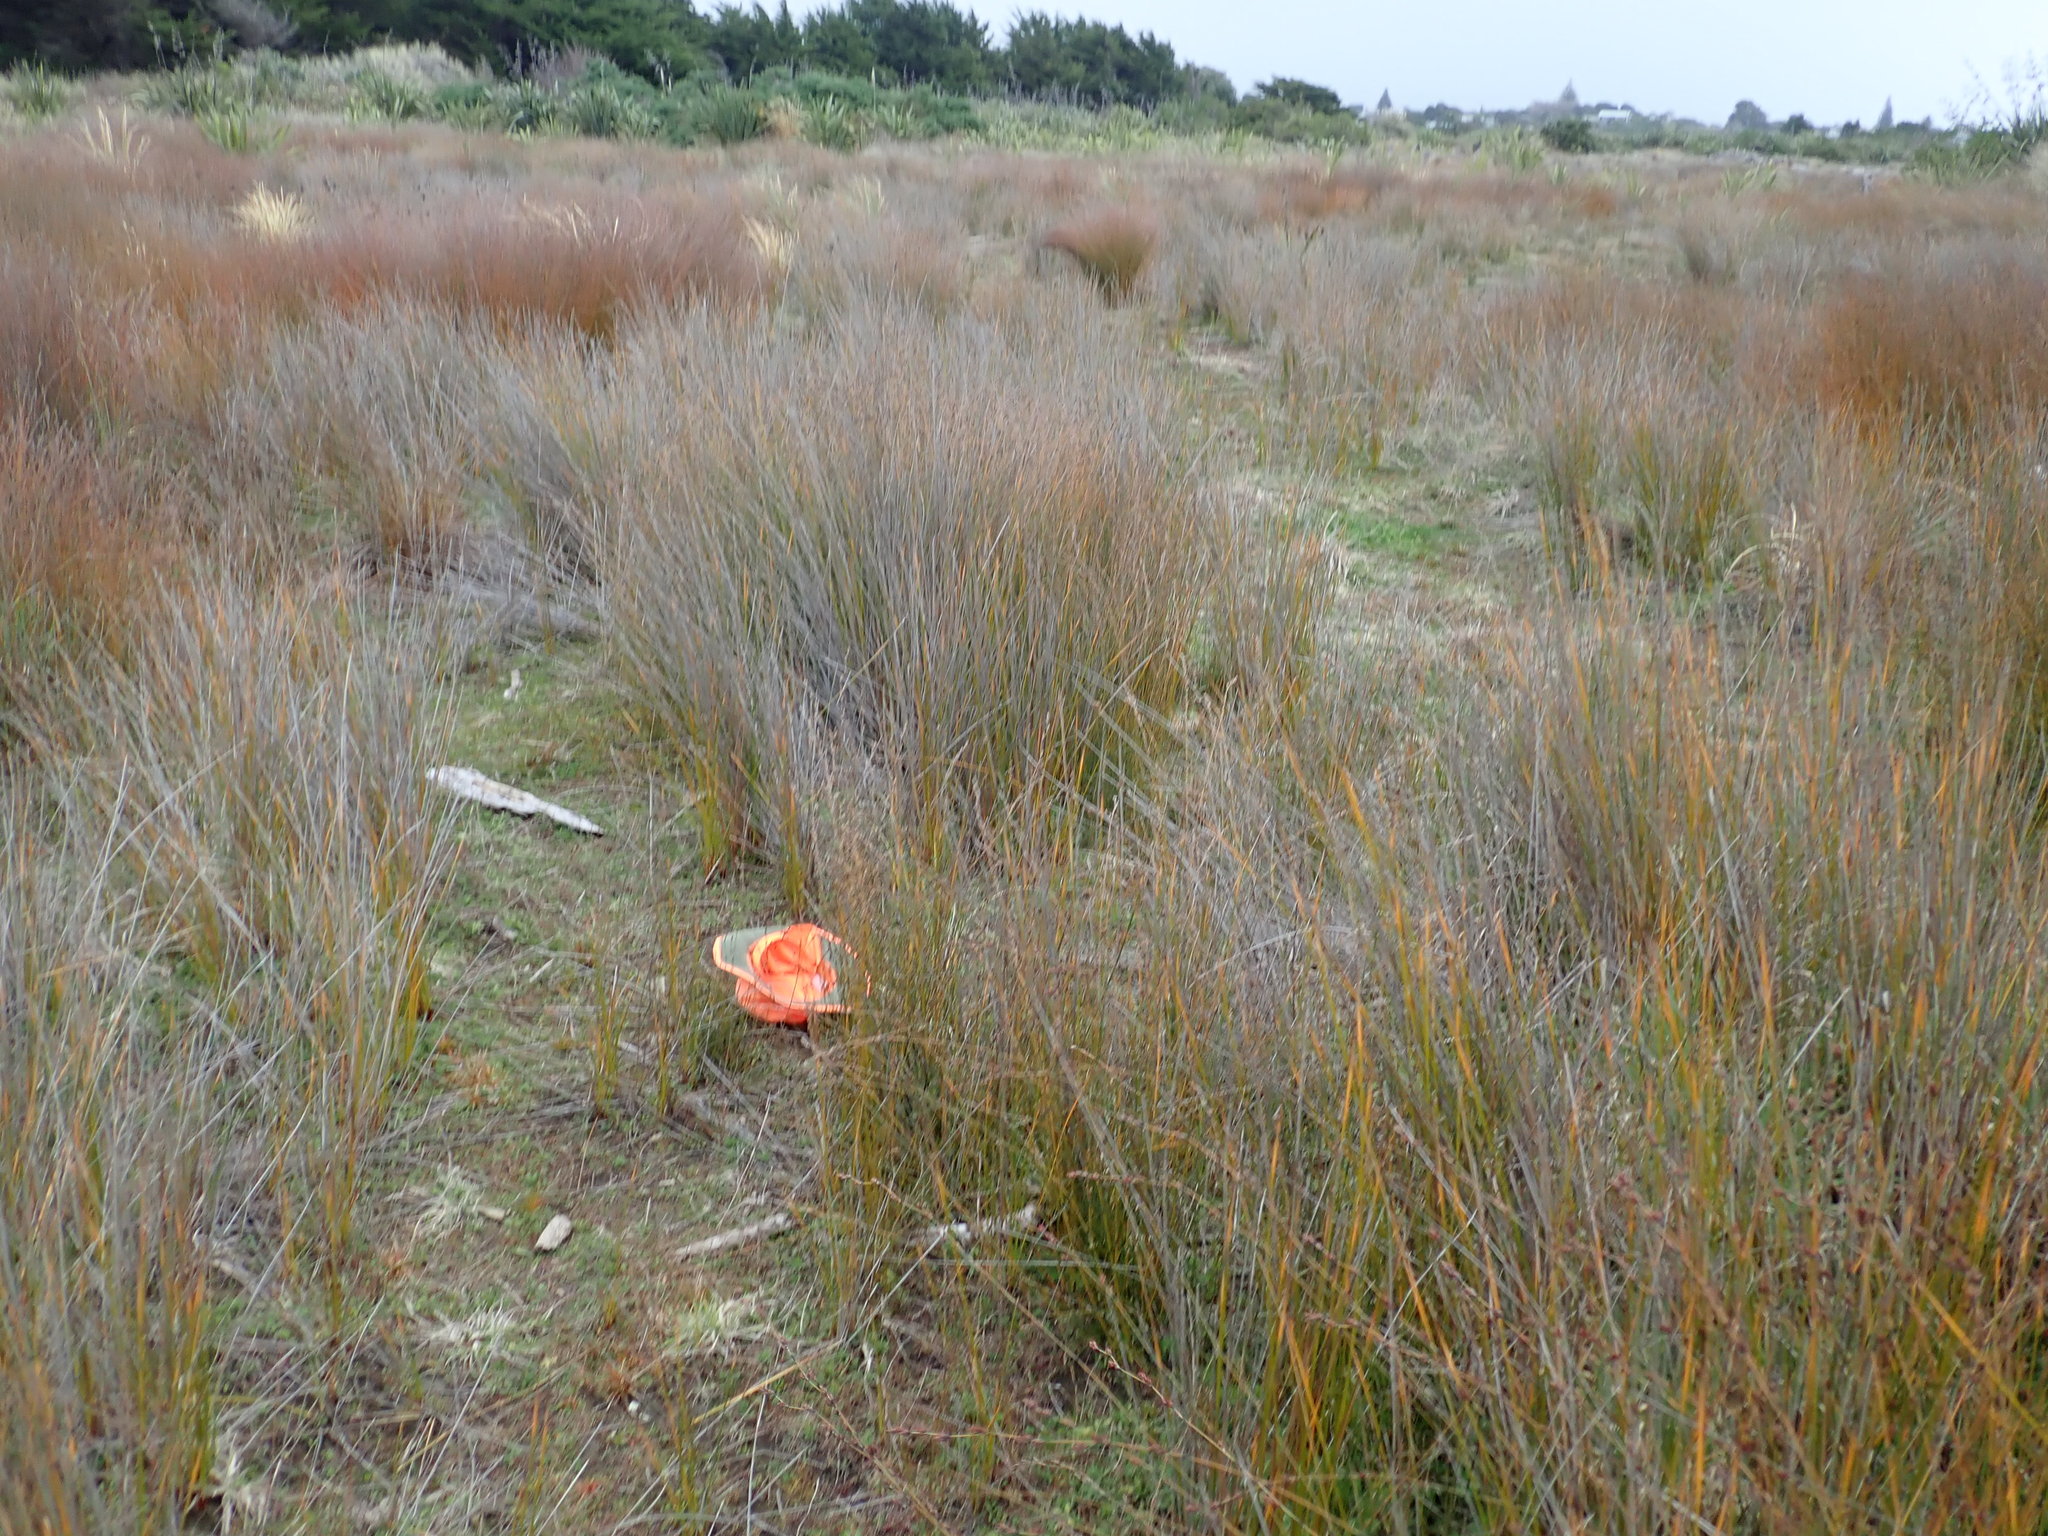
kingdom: Plantae
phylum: Bryophyta
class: Bryopsida
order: Dicranales
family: Leucobryaceae
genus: Campylopus
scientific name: Campylopus clavatus
